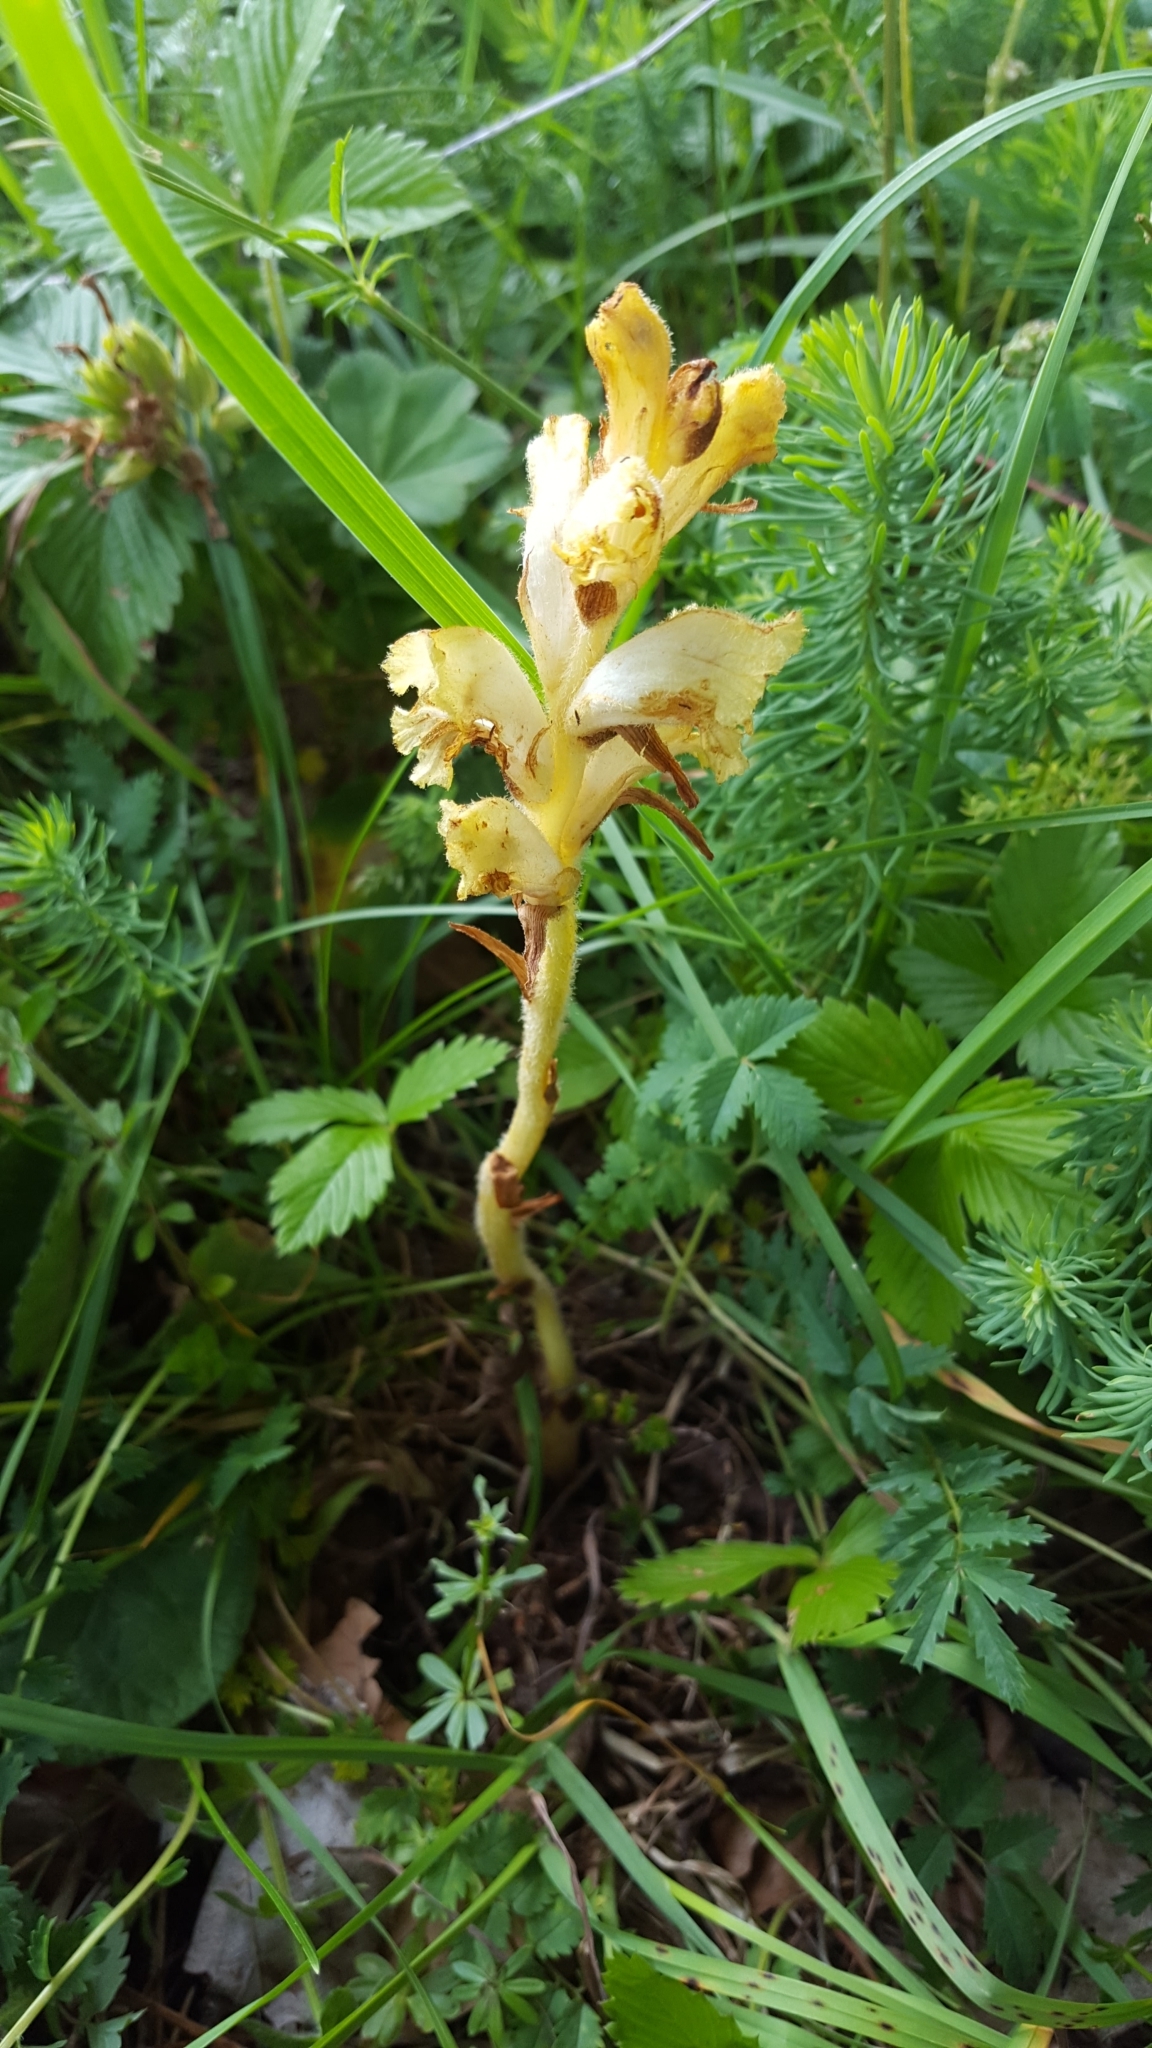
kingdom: Plantae
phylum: Tracheophyta
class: Magnoliopsida
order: Lamiales
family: Orobanchaceae
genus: Orobanche
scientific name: Orobanche caryophyllacea
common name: Bedstraw broomrape
